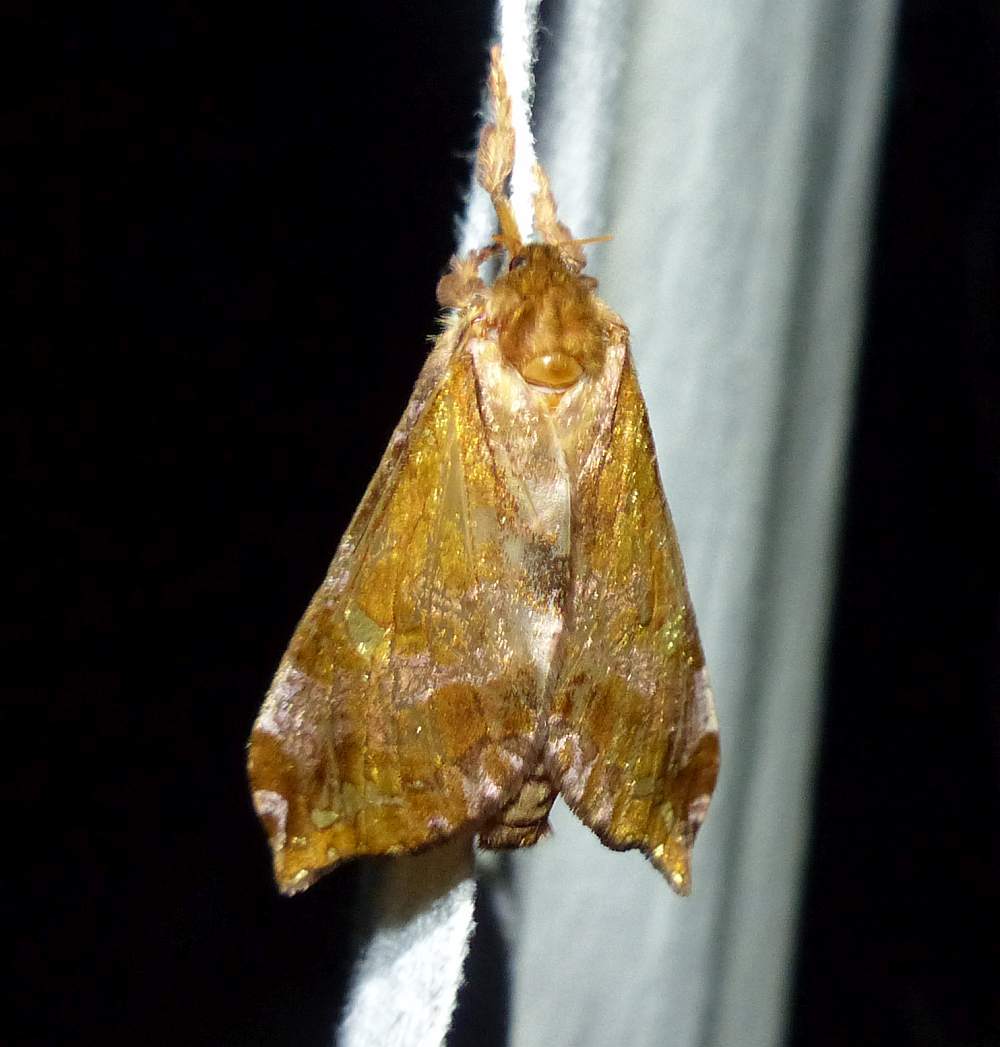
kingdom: Animalia
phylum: Arthropoda
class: Insecta
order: Lepidoptera
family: Hepialidae
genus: Sthenopis
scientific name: Sthenopis pretiosus
